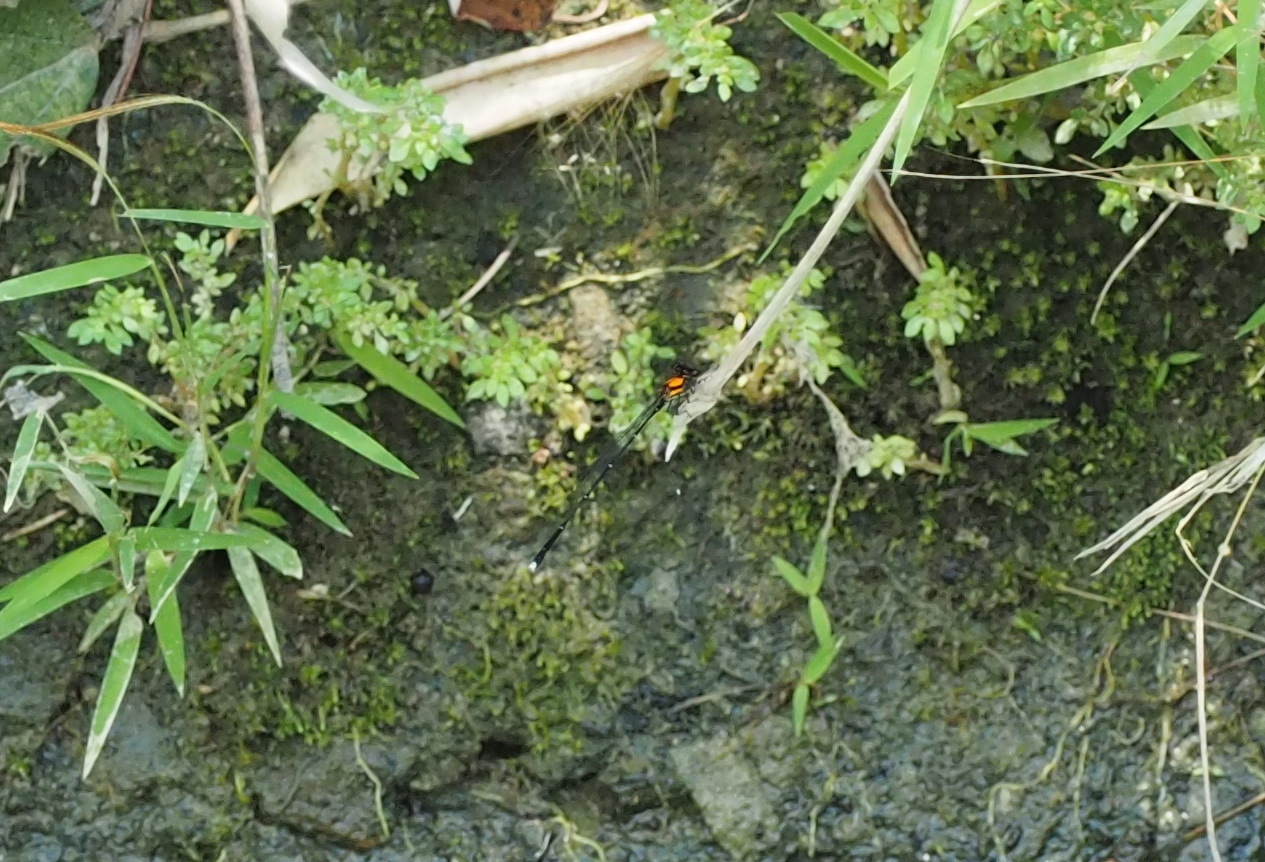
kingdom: Animalia
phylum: Arthropoda
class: Insecta
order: Odonata
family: Platycnemididae
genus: Prodasineura
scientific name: Prodasineura croconota
